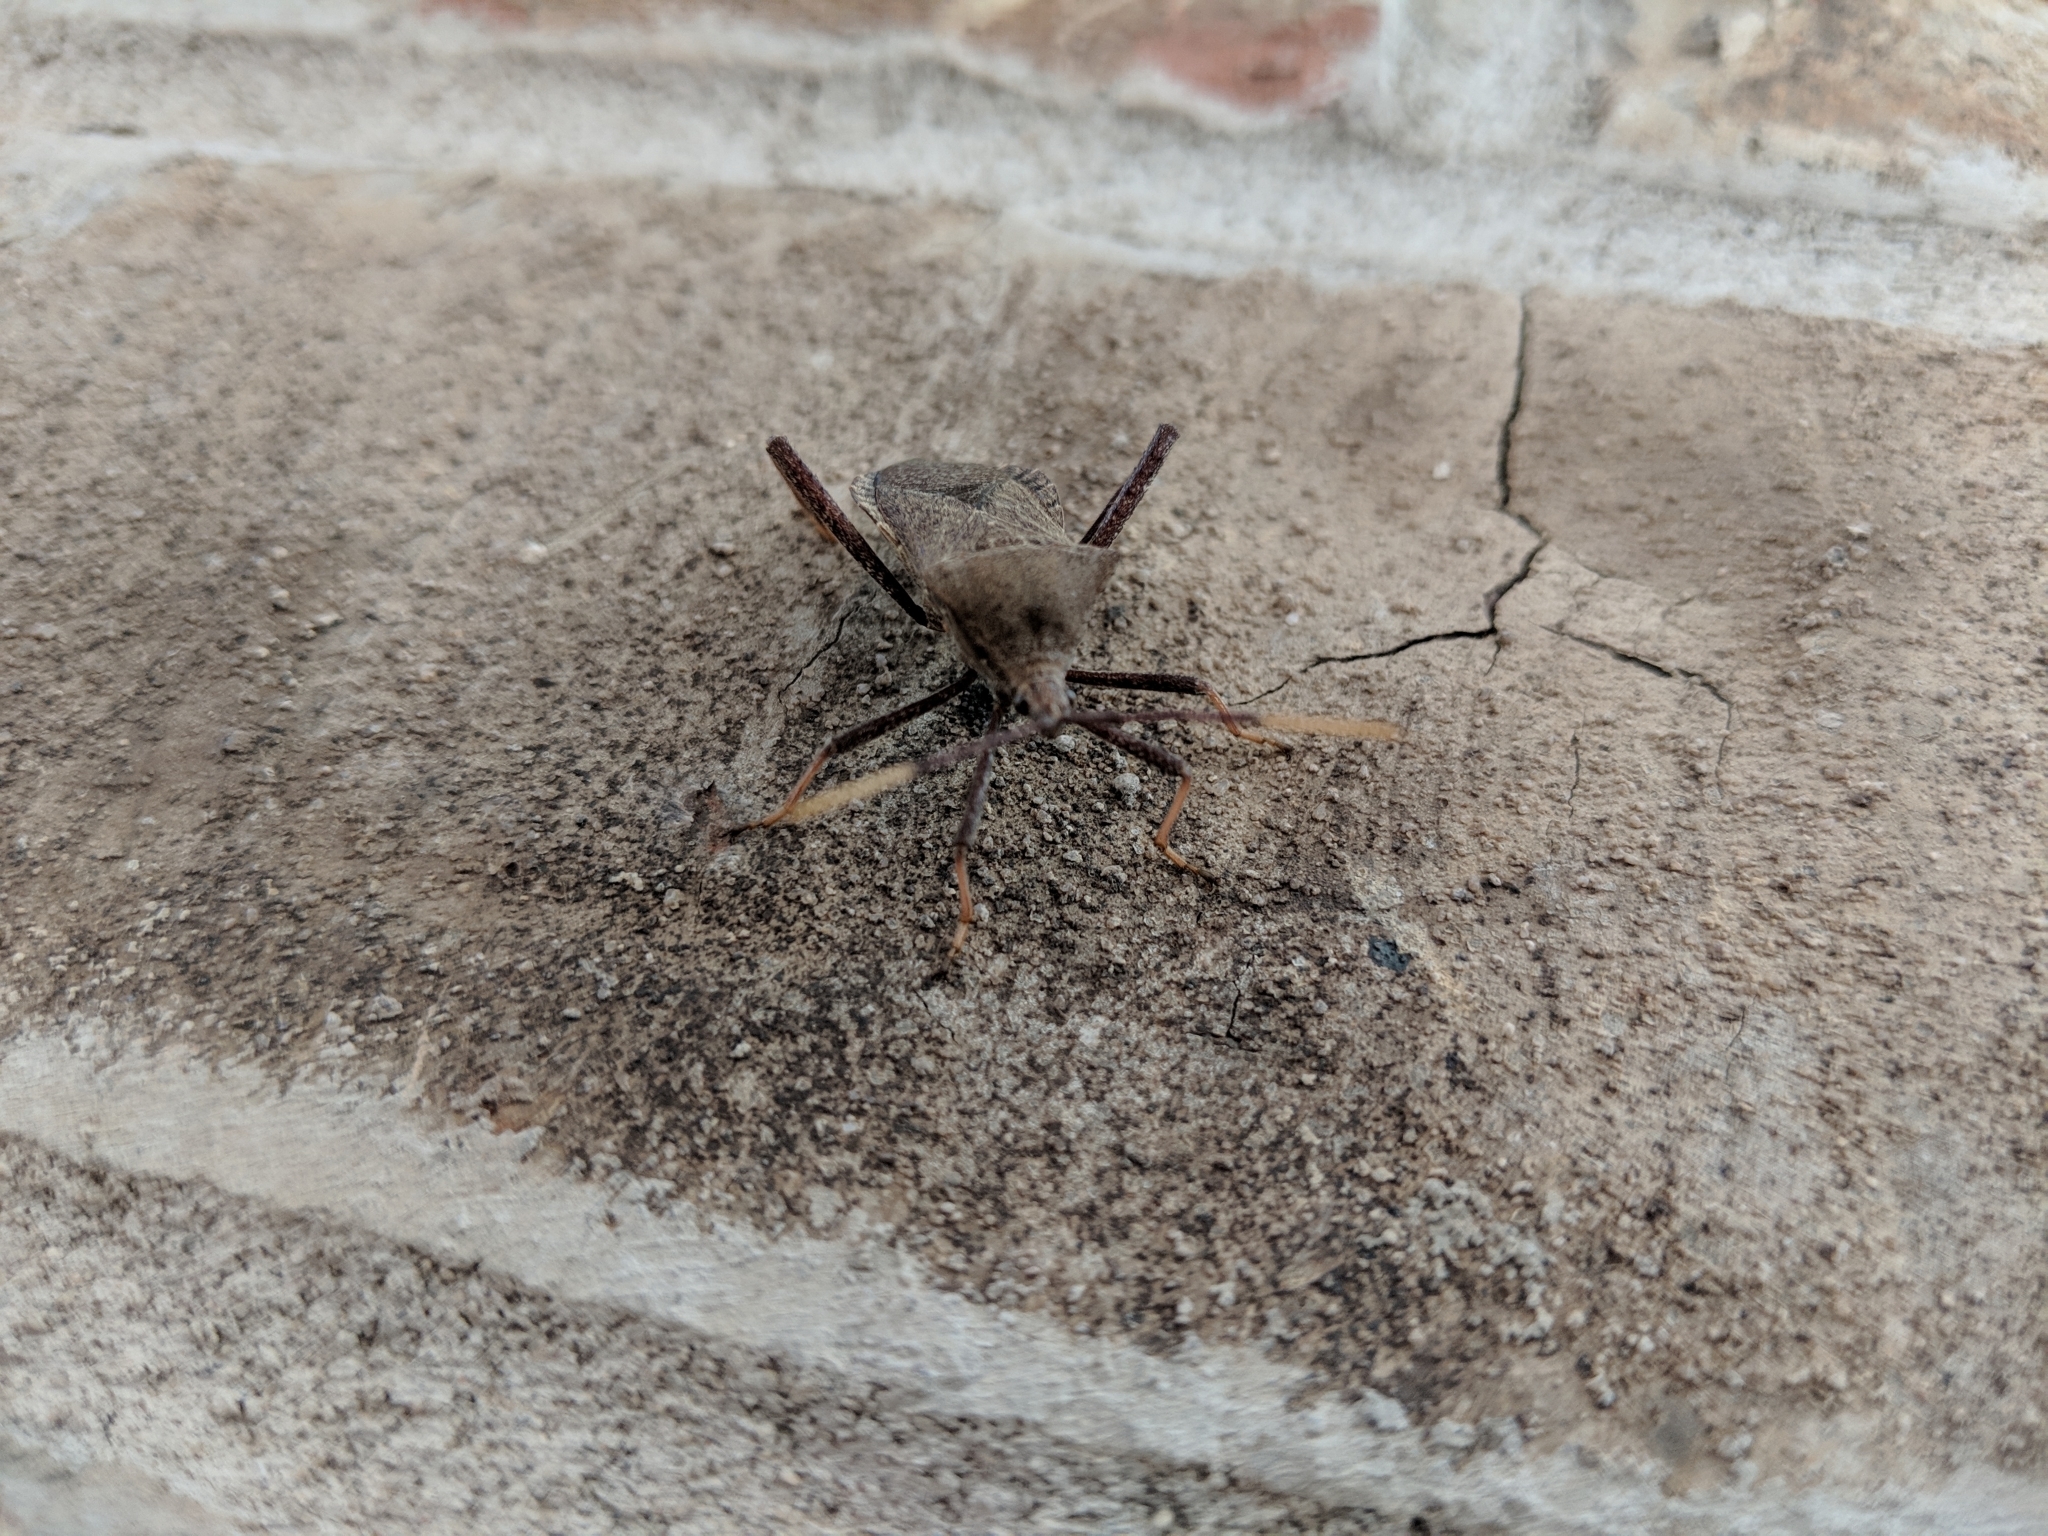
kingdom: Animalia
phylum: Arthropoda
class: Insecta
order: Hemiptera
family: Coreidae
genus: Acanthocephala
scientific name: Acanthocephala terminalis
